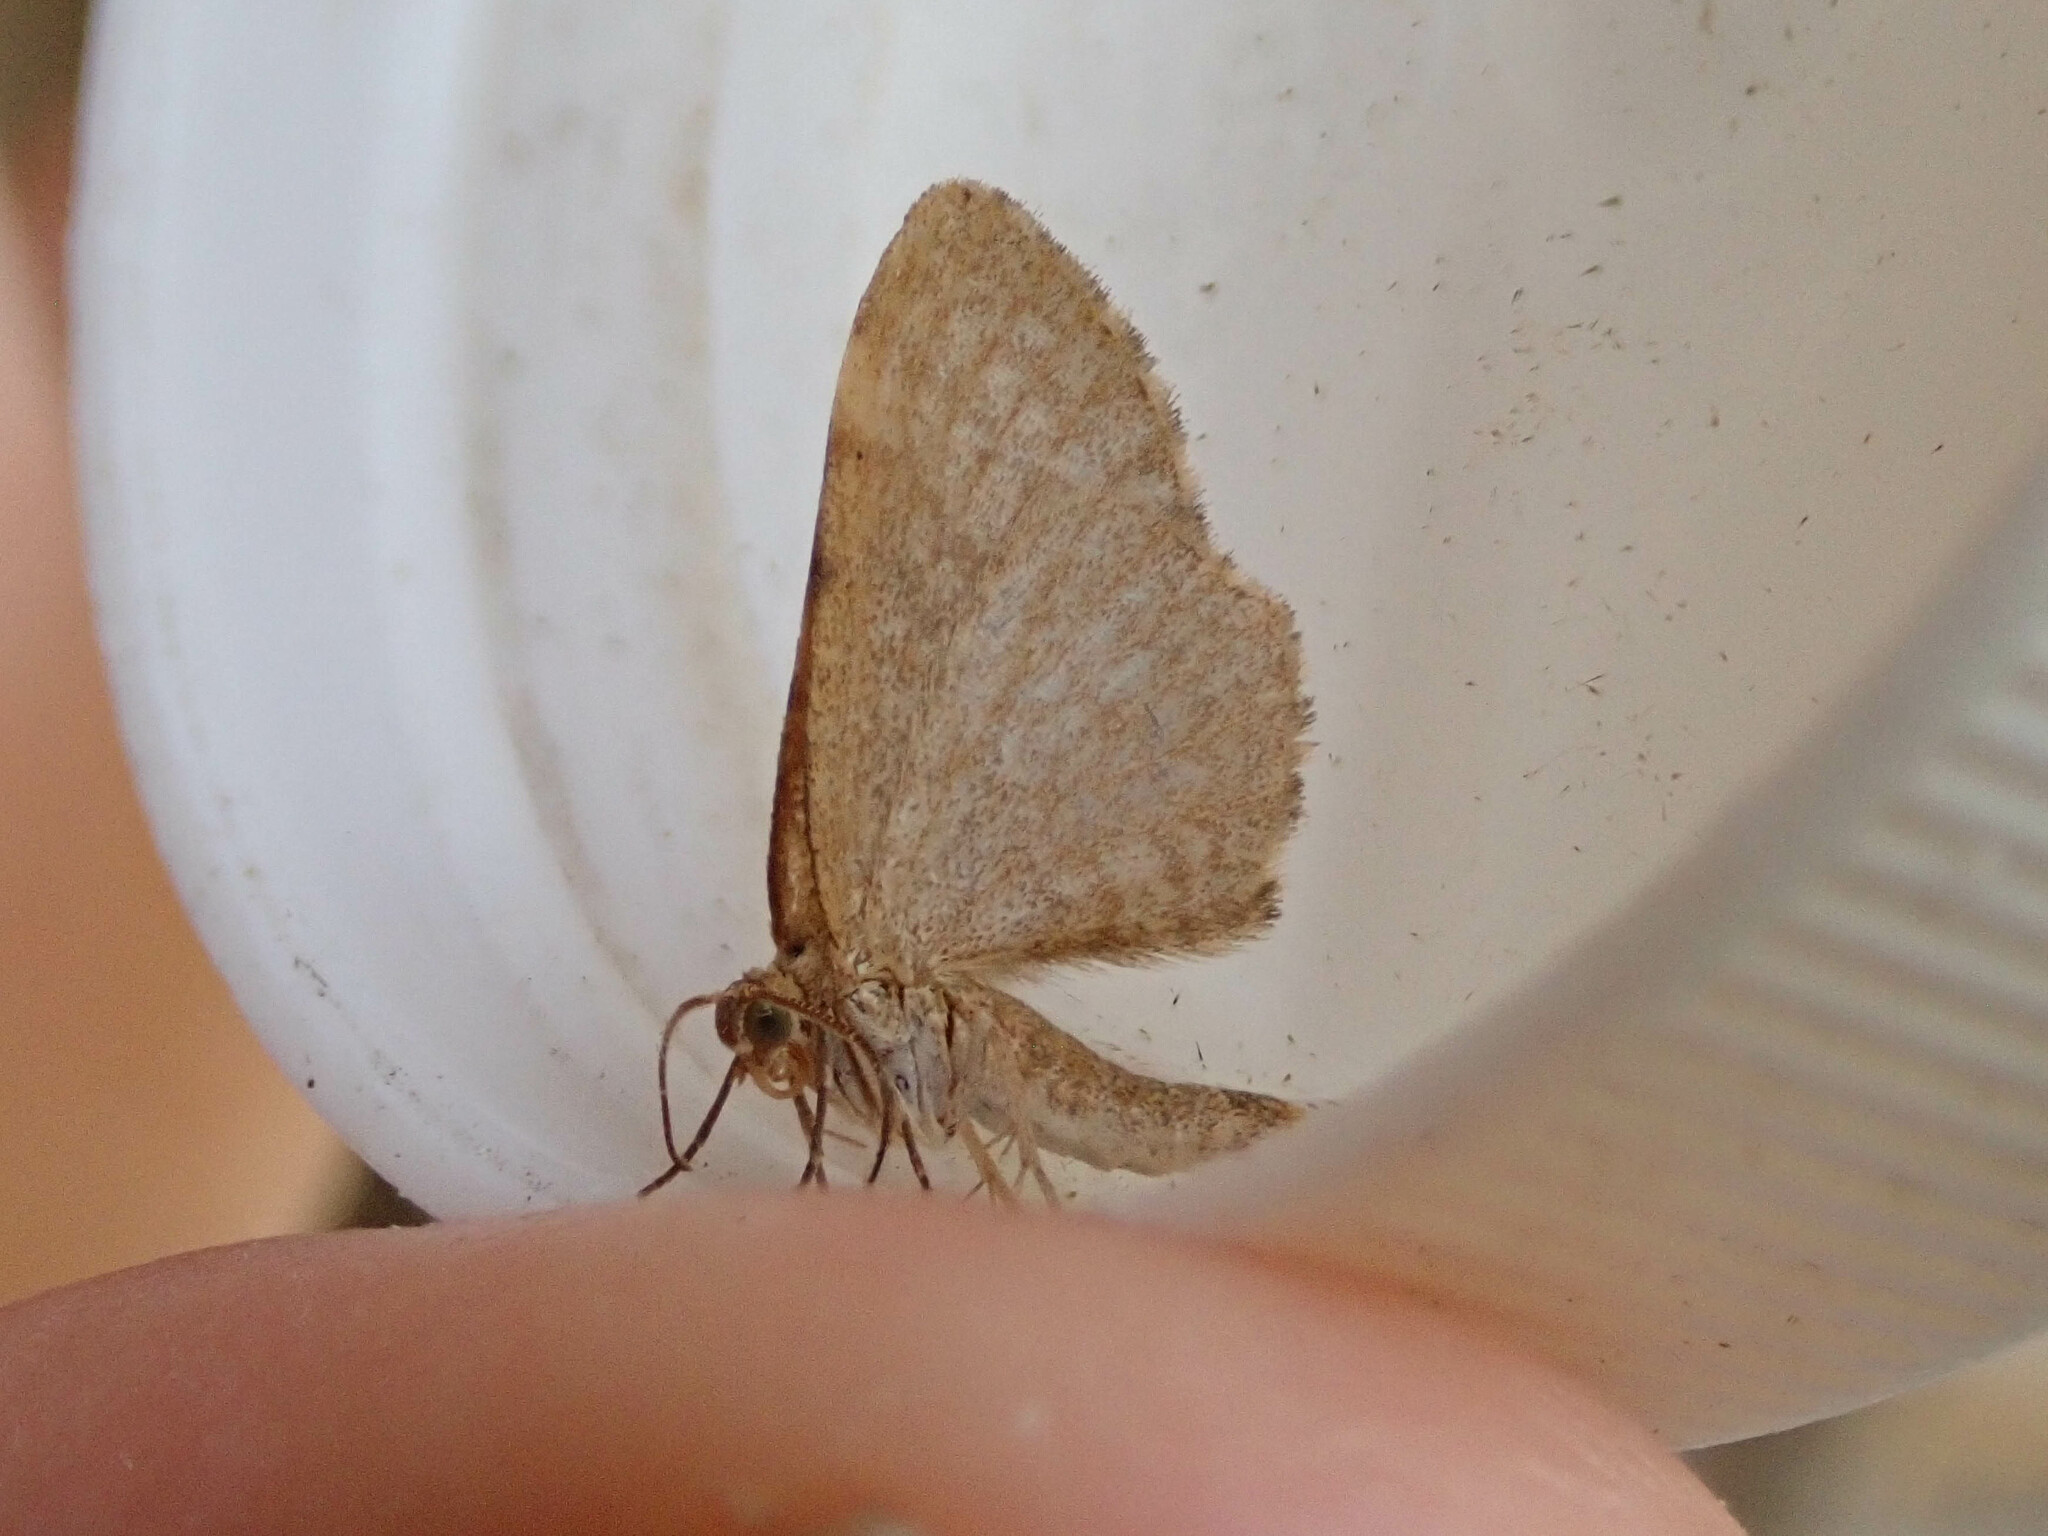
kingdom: Animalia
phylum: Arthropoda
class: Insecta
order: Lepidoptera
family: Geometridae
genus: Euchoeca
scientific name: Euchoeca nebulata
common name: Dingy shell
